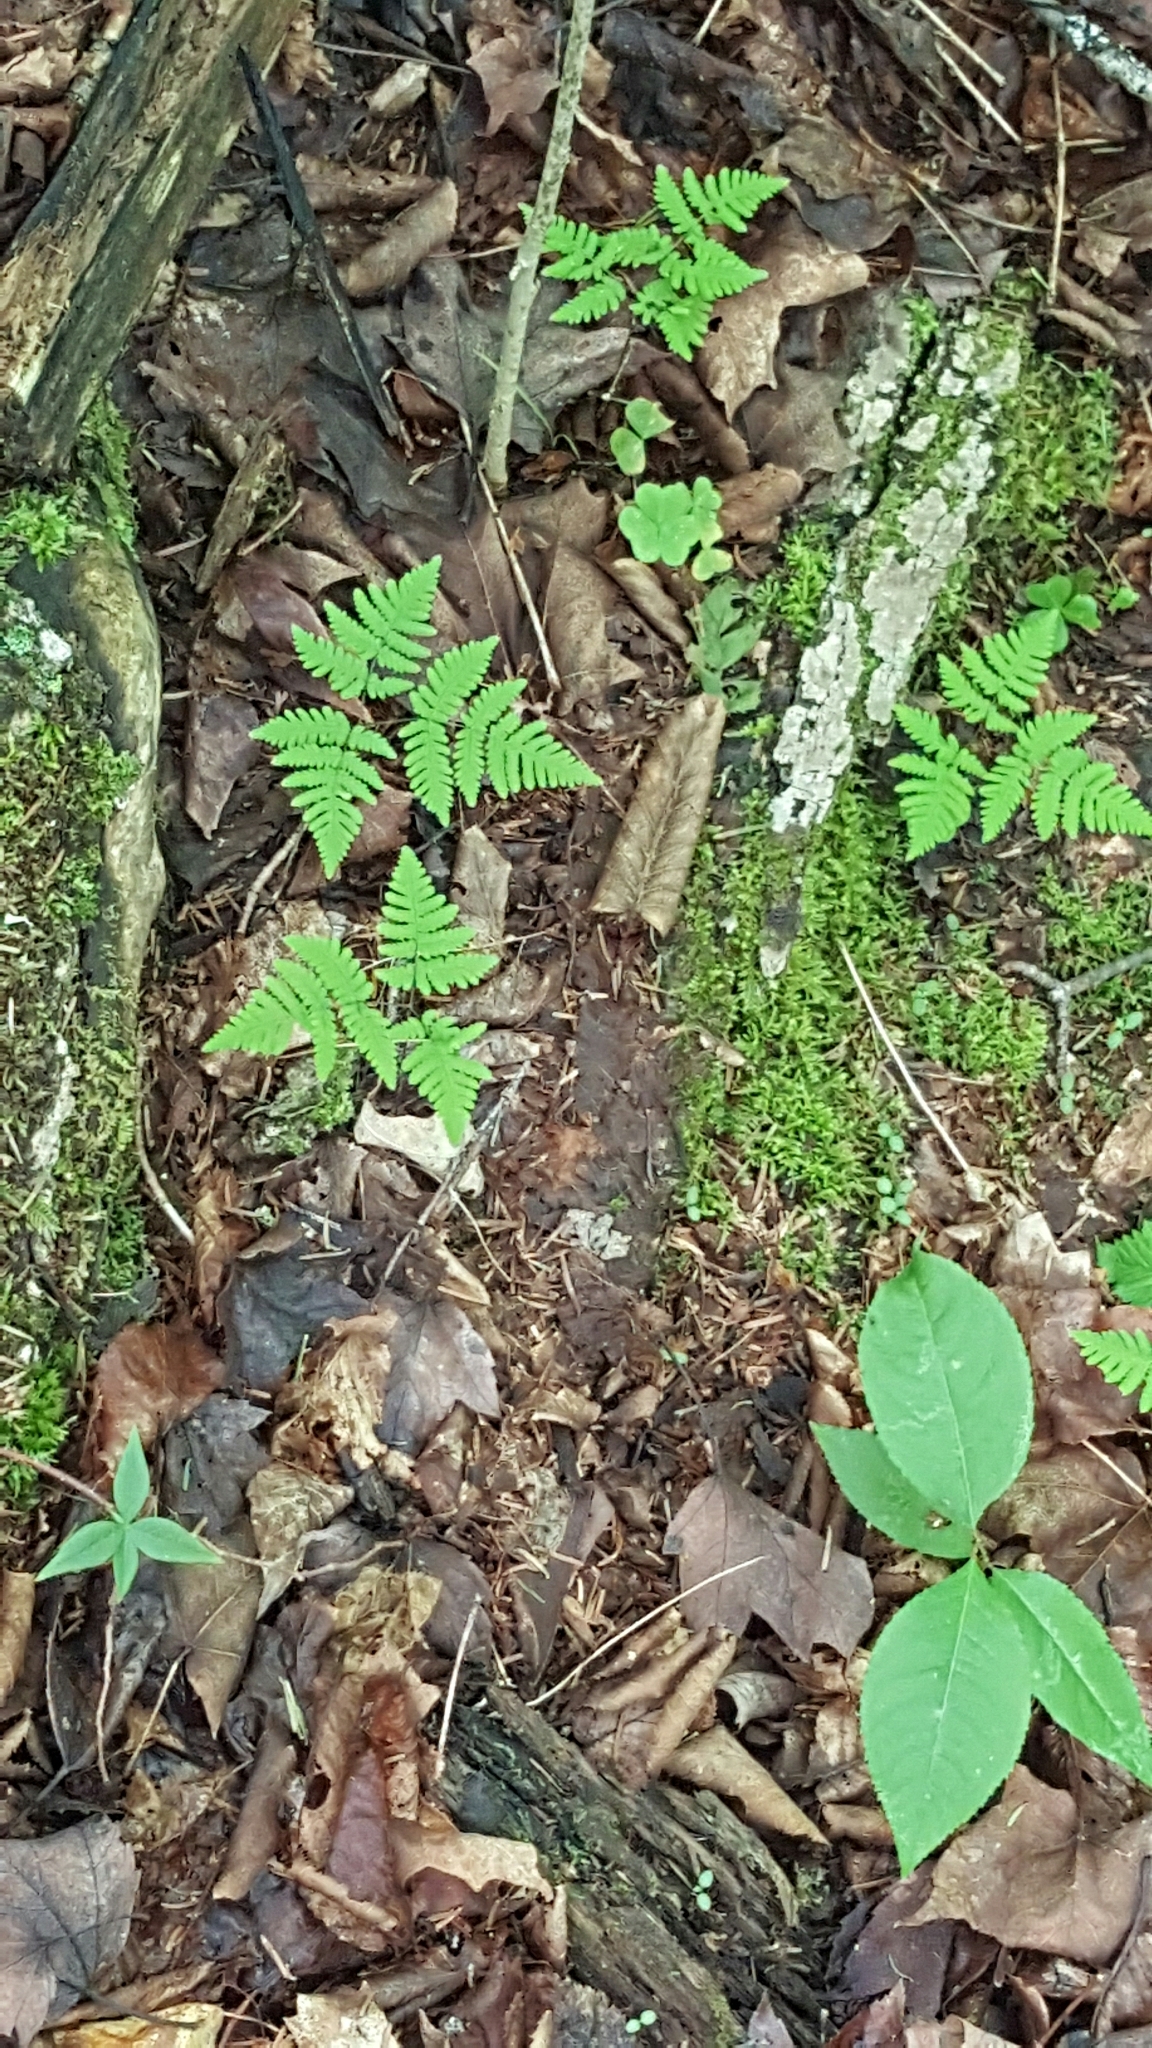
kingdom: Plantae
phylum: Tracheophyta
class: Polypodiopsida
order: Polypodiales
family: Cystopteridaceae
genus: Gymnocarpium
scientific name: Gymnocarpium dryopteris
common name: Oak fern
